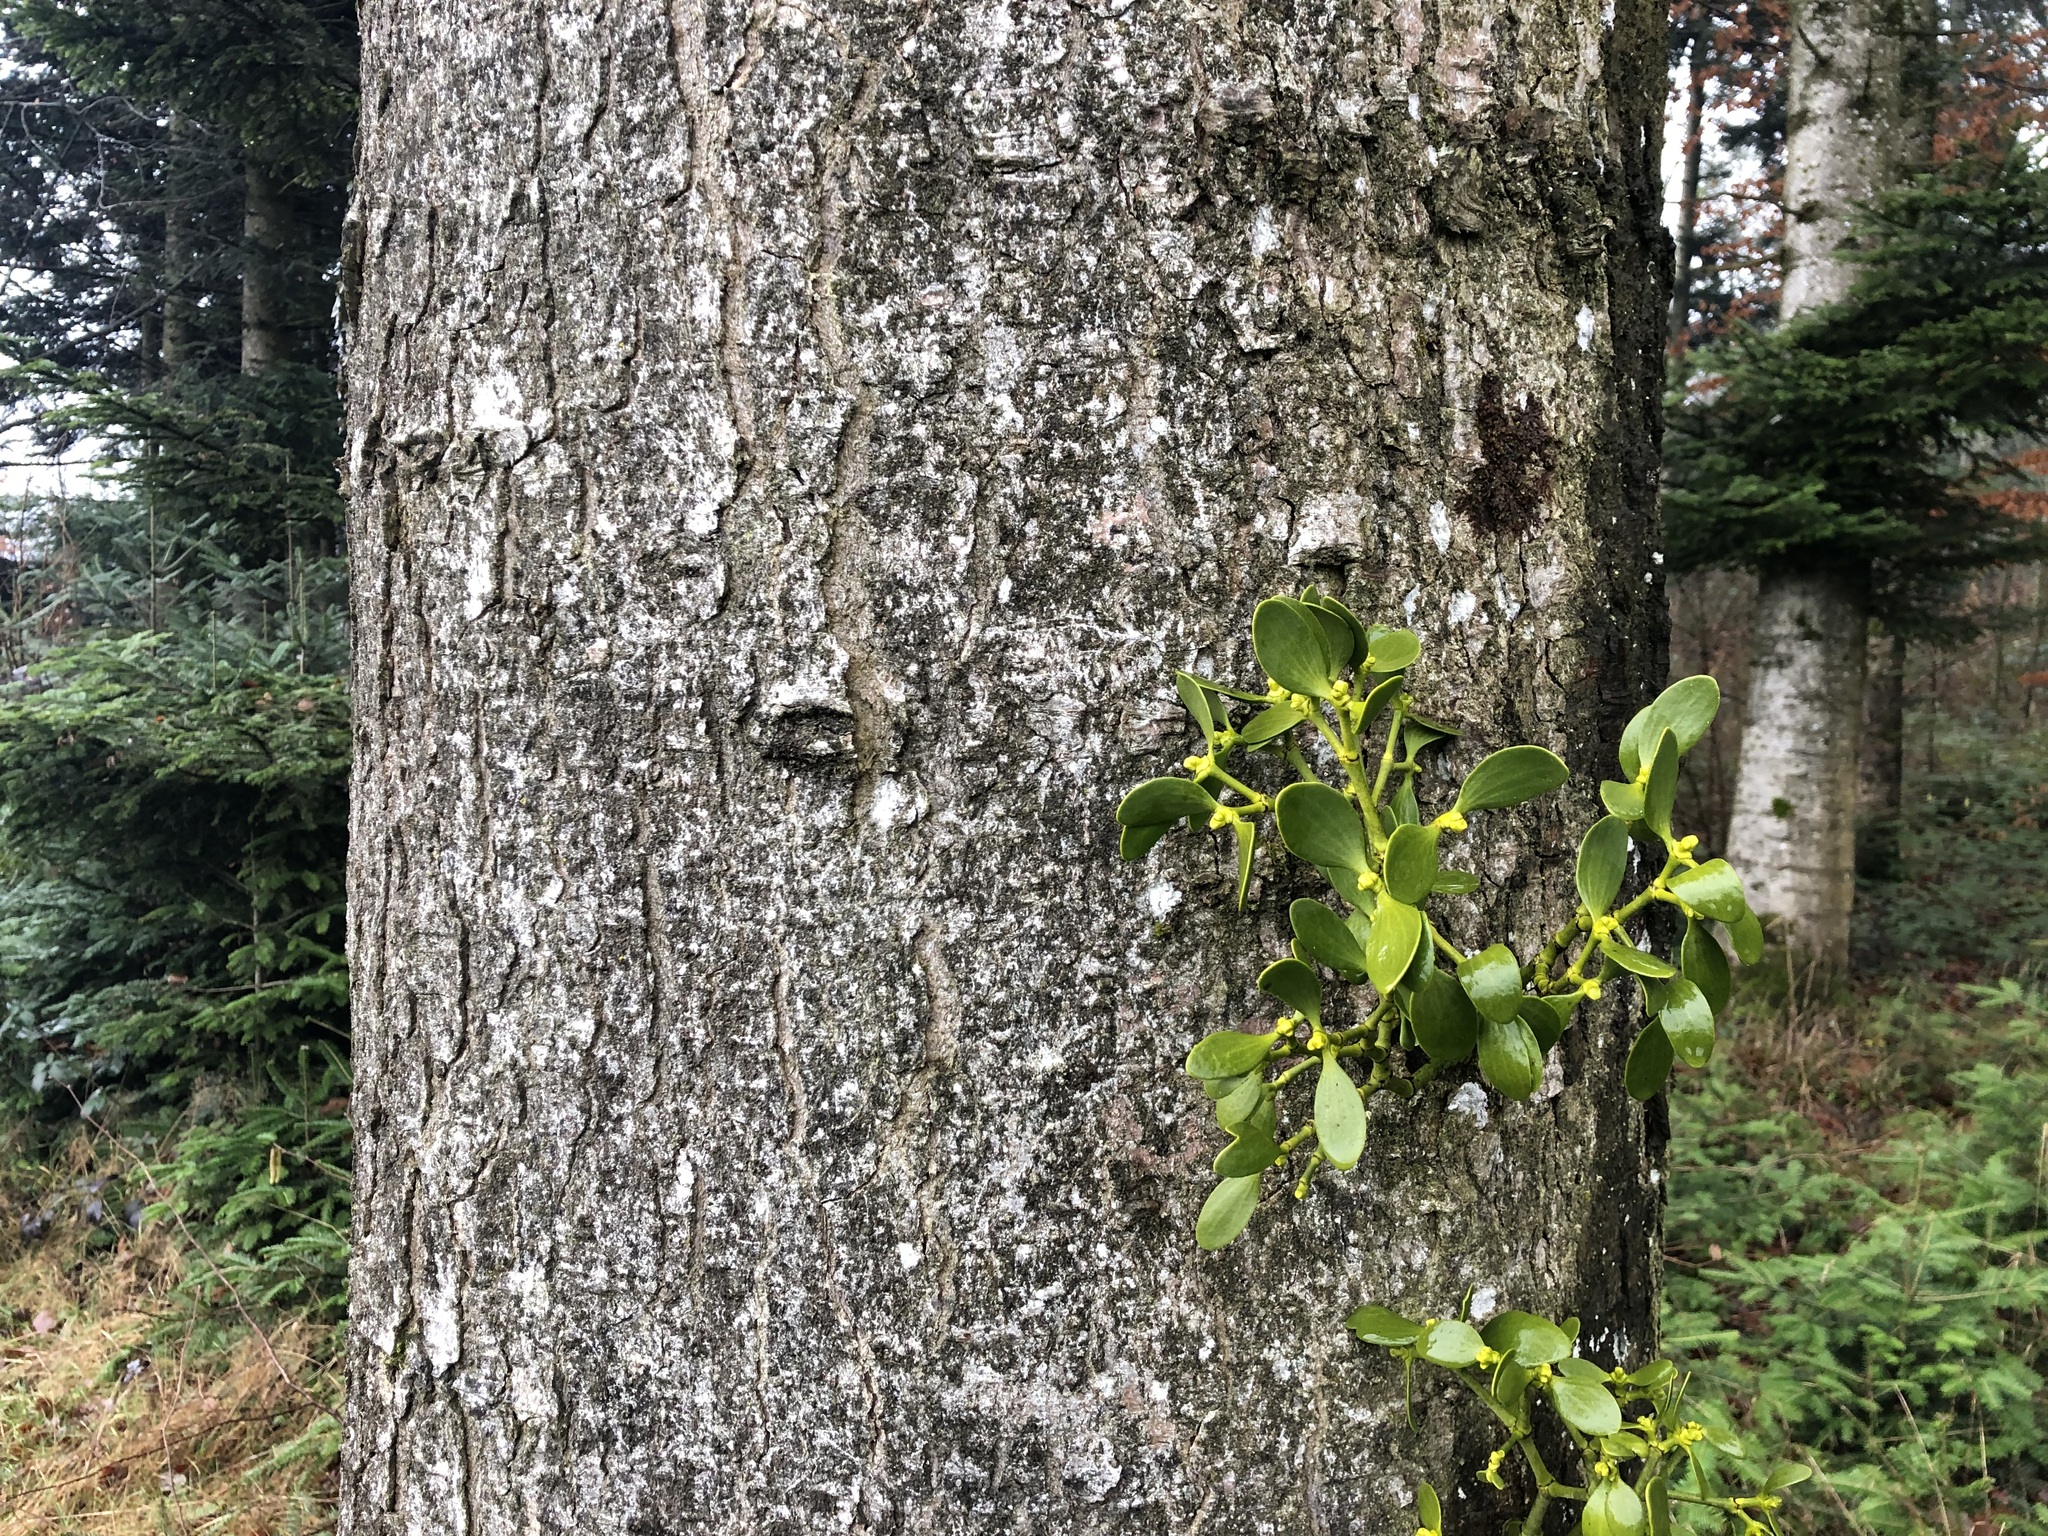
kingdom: Plantae
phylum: Tracheophyta
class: Magnoliopsida
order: Santalales
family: Viscaceae
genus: Viscum
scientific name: Viscum album
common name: Mistletoe
